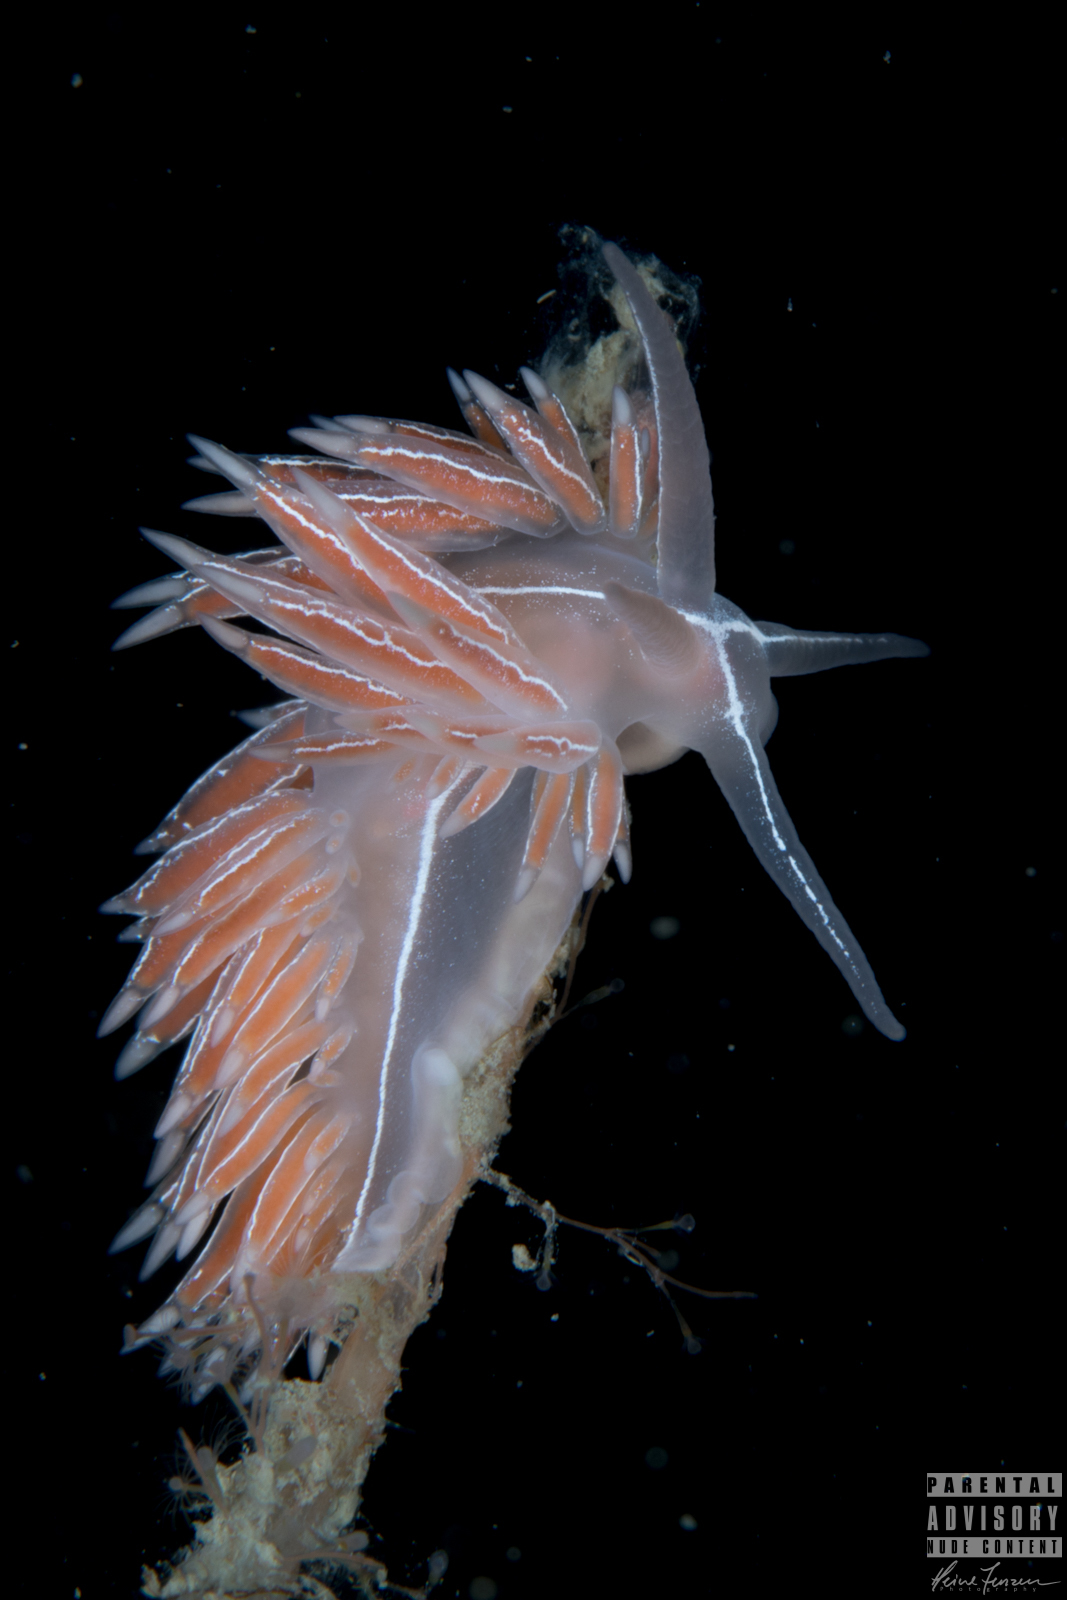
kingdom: Animalia
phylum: Mollusca
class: Gastropoda
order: Nudibranchia
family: Coryphellidae
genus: Coryphella
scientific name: Coryphella chriskaugei
